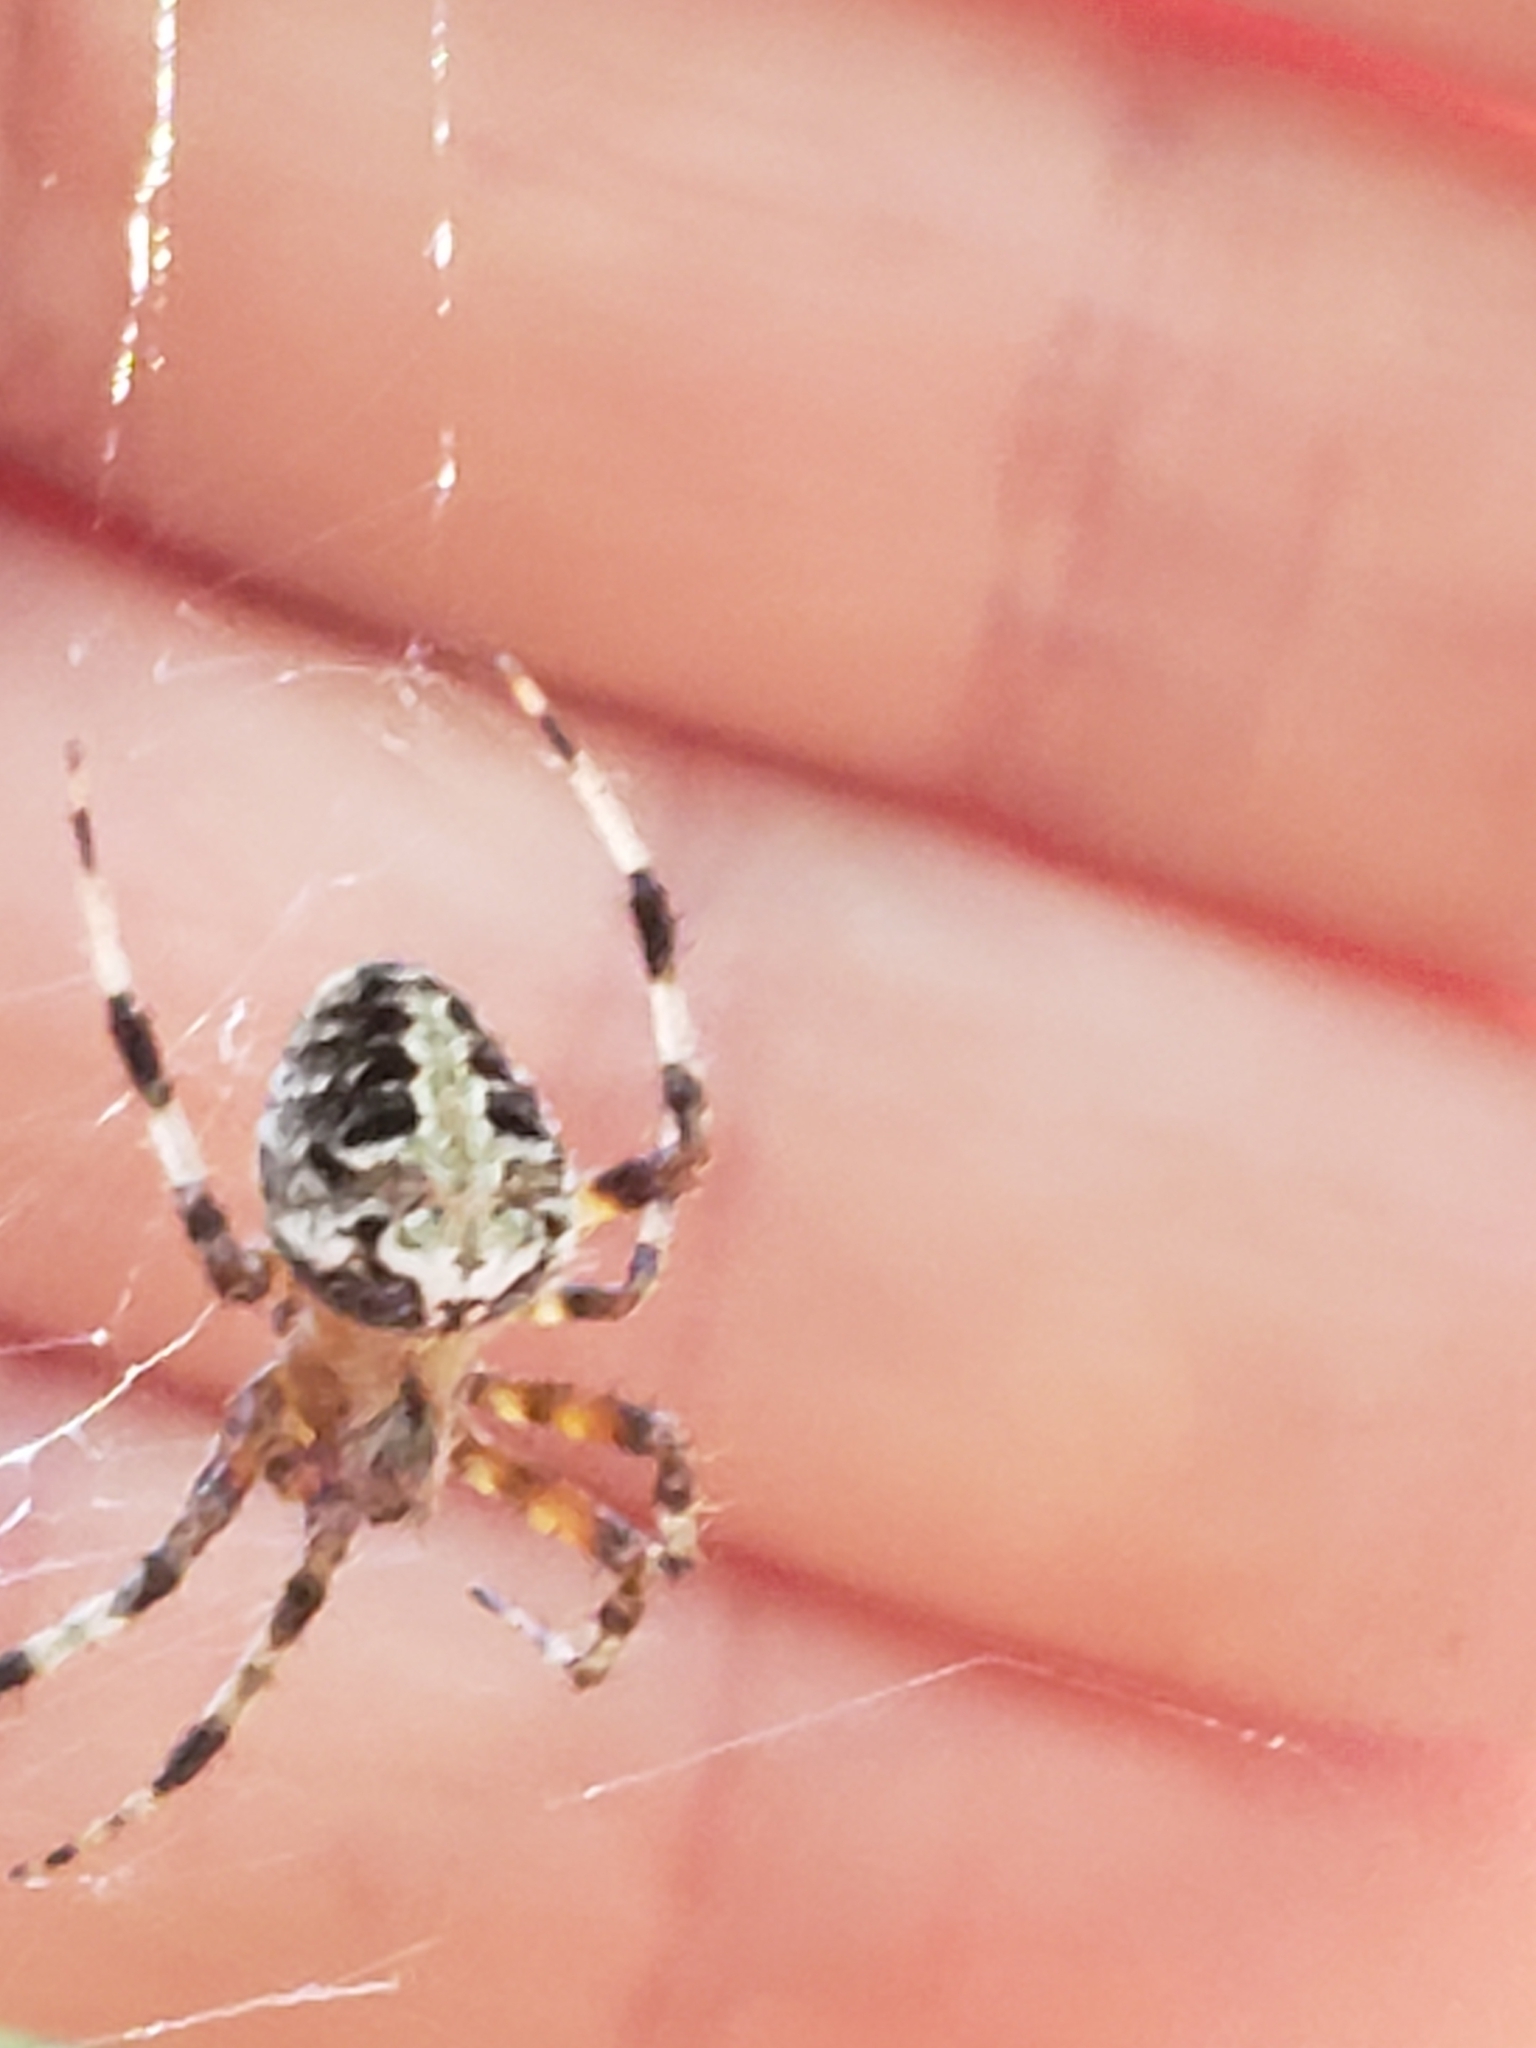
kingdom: Animalia
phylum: Arthropoda
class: Arachnida
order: Araneae
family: Araneidae
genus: Neoscona
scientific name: Neoscona domiciliorum
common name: Red-femured spotted orbweaver
